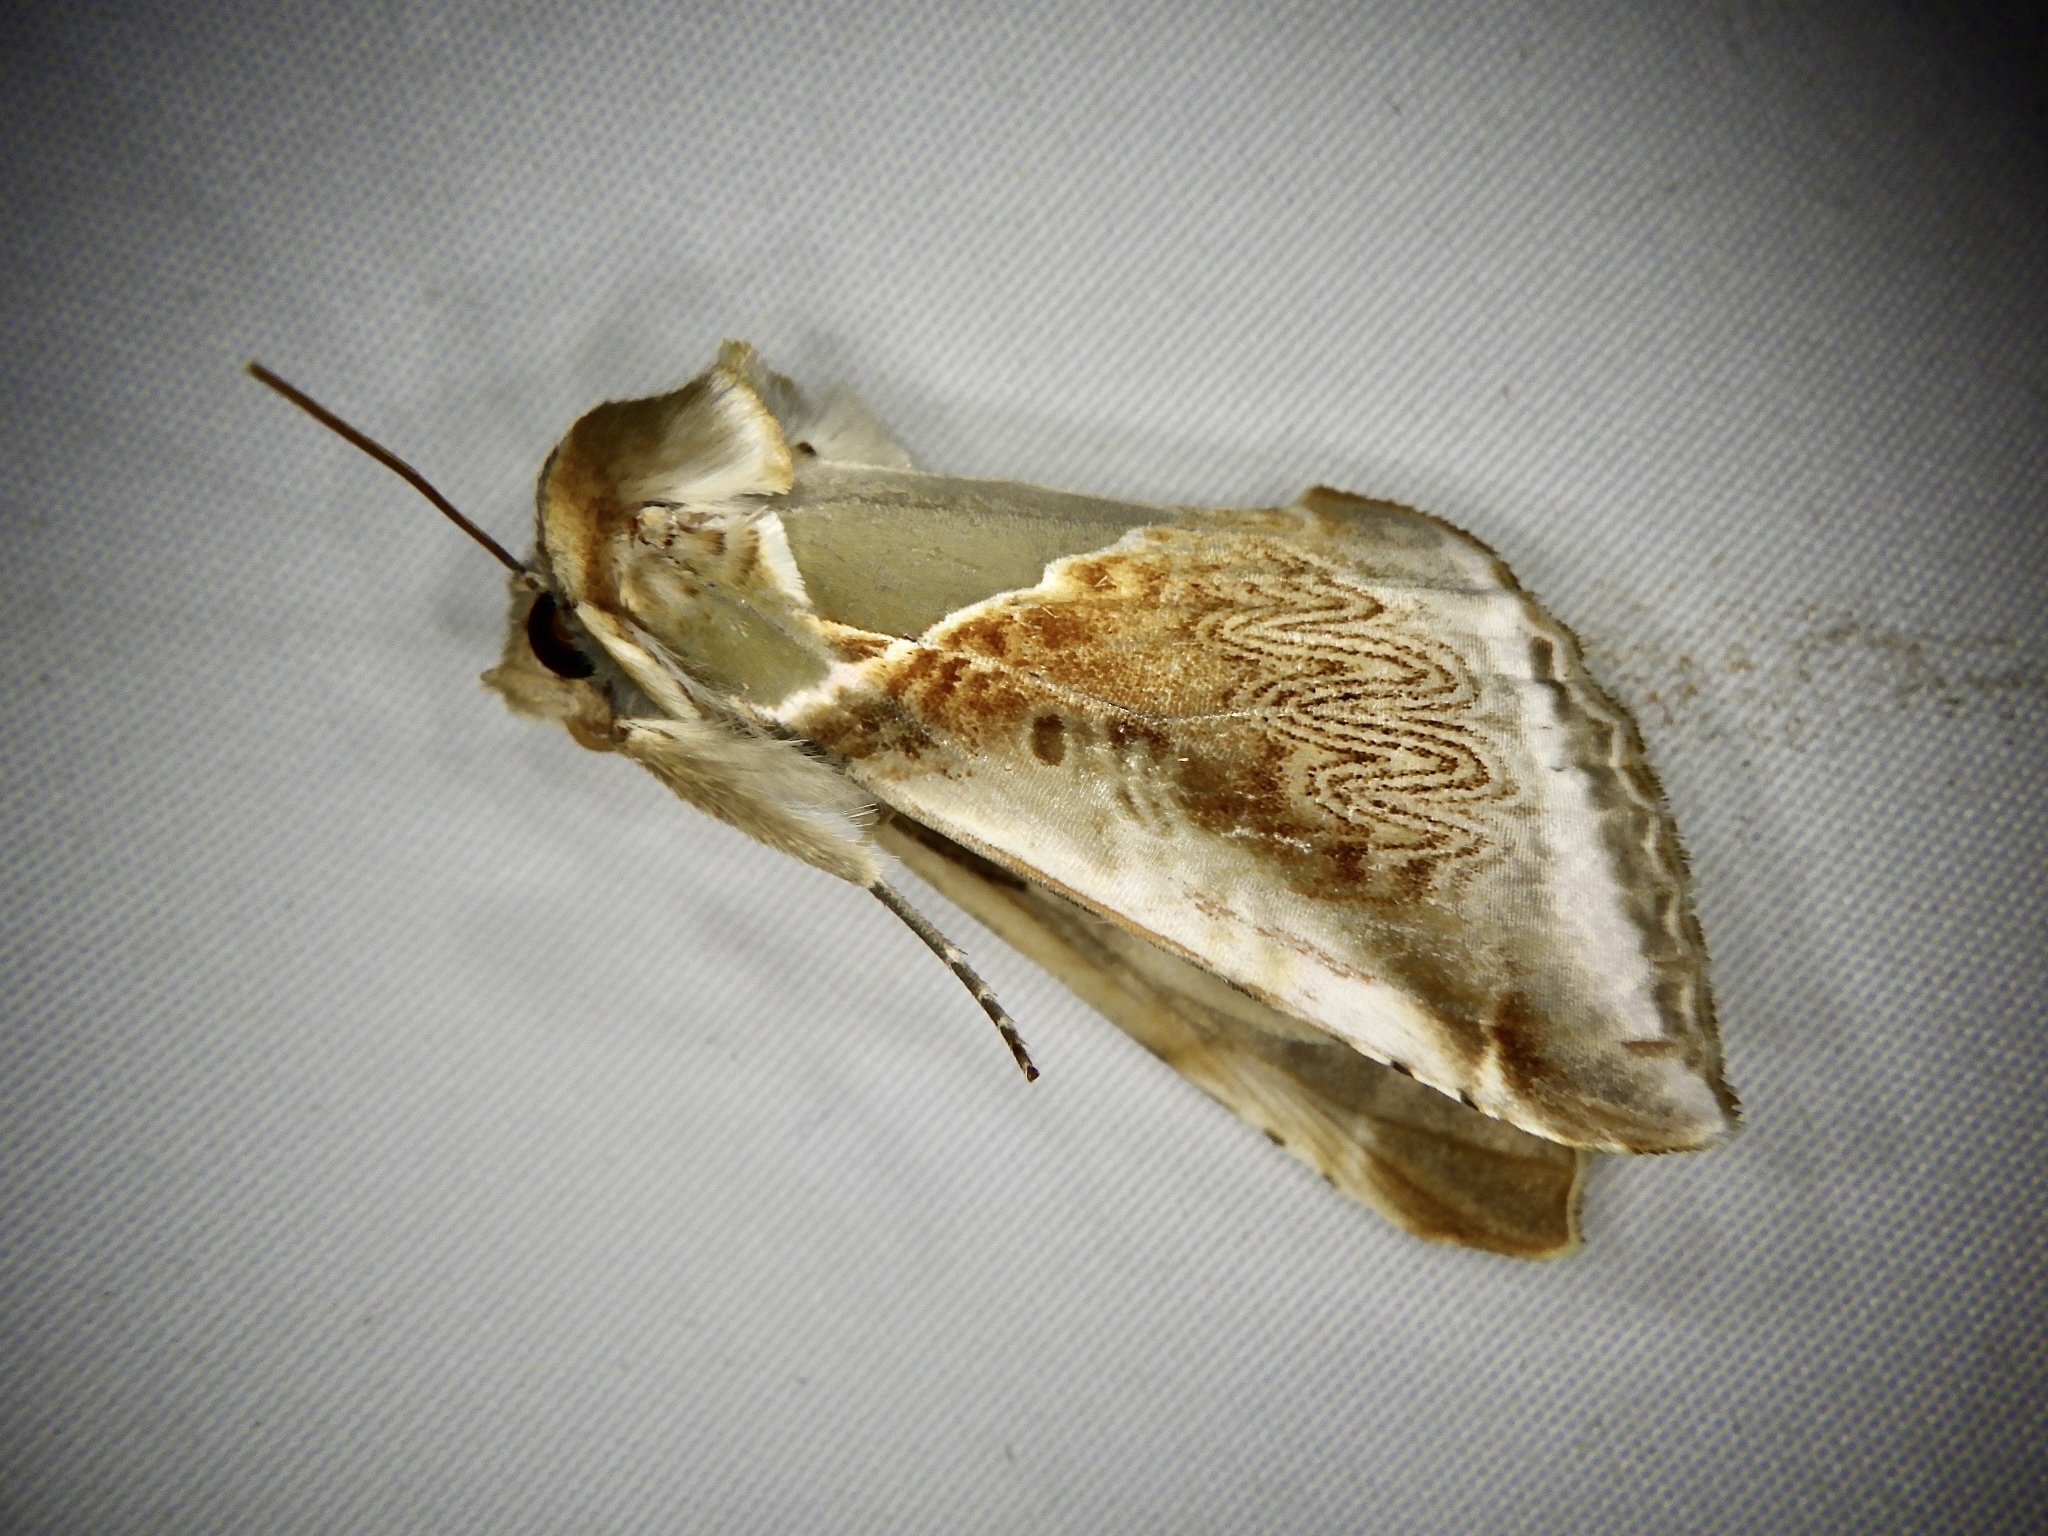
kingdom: Animalia
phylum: Arthropoda
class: Insecta
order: Lepidoptera
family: Drepanidae
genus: Habrosyne
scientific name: Habrosyne fraterna
